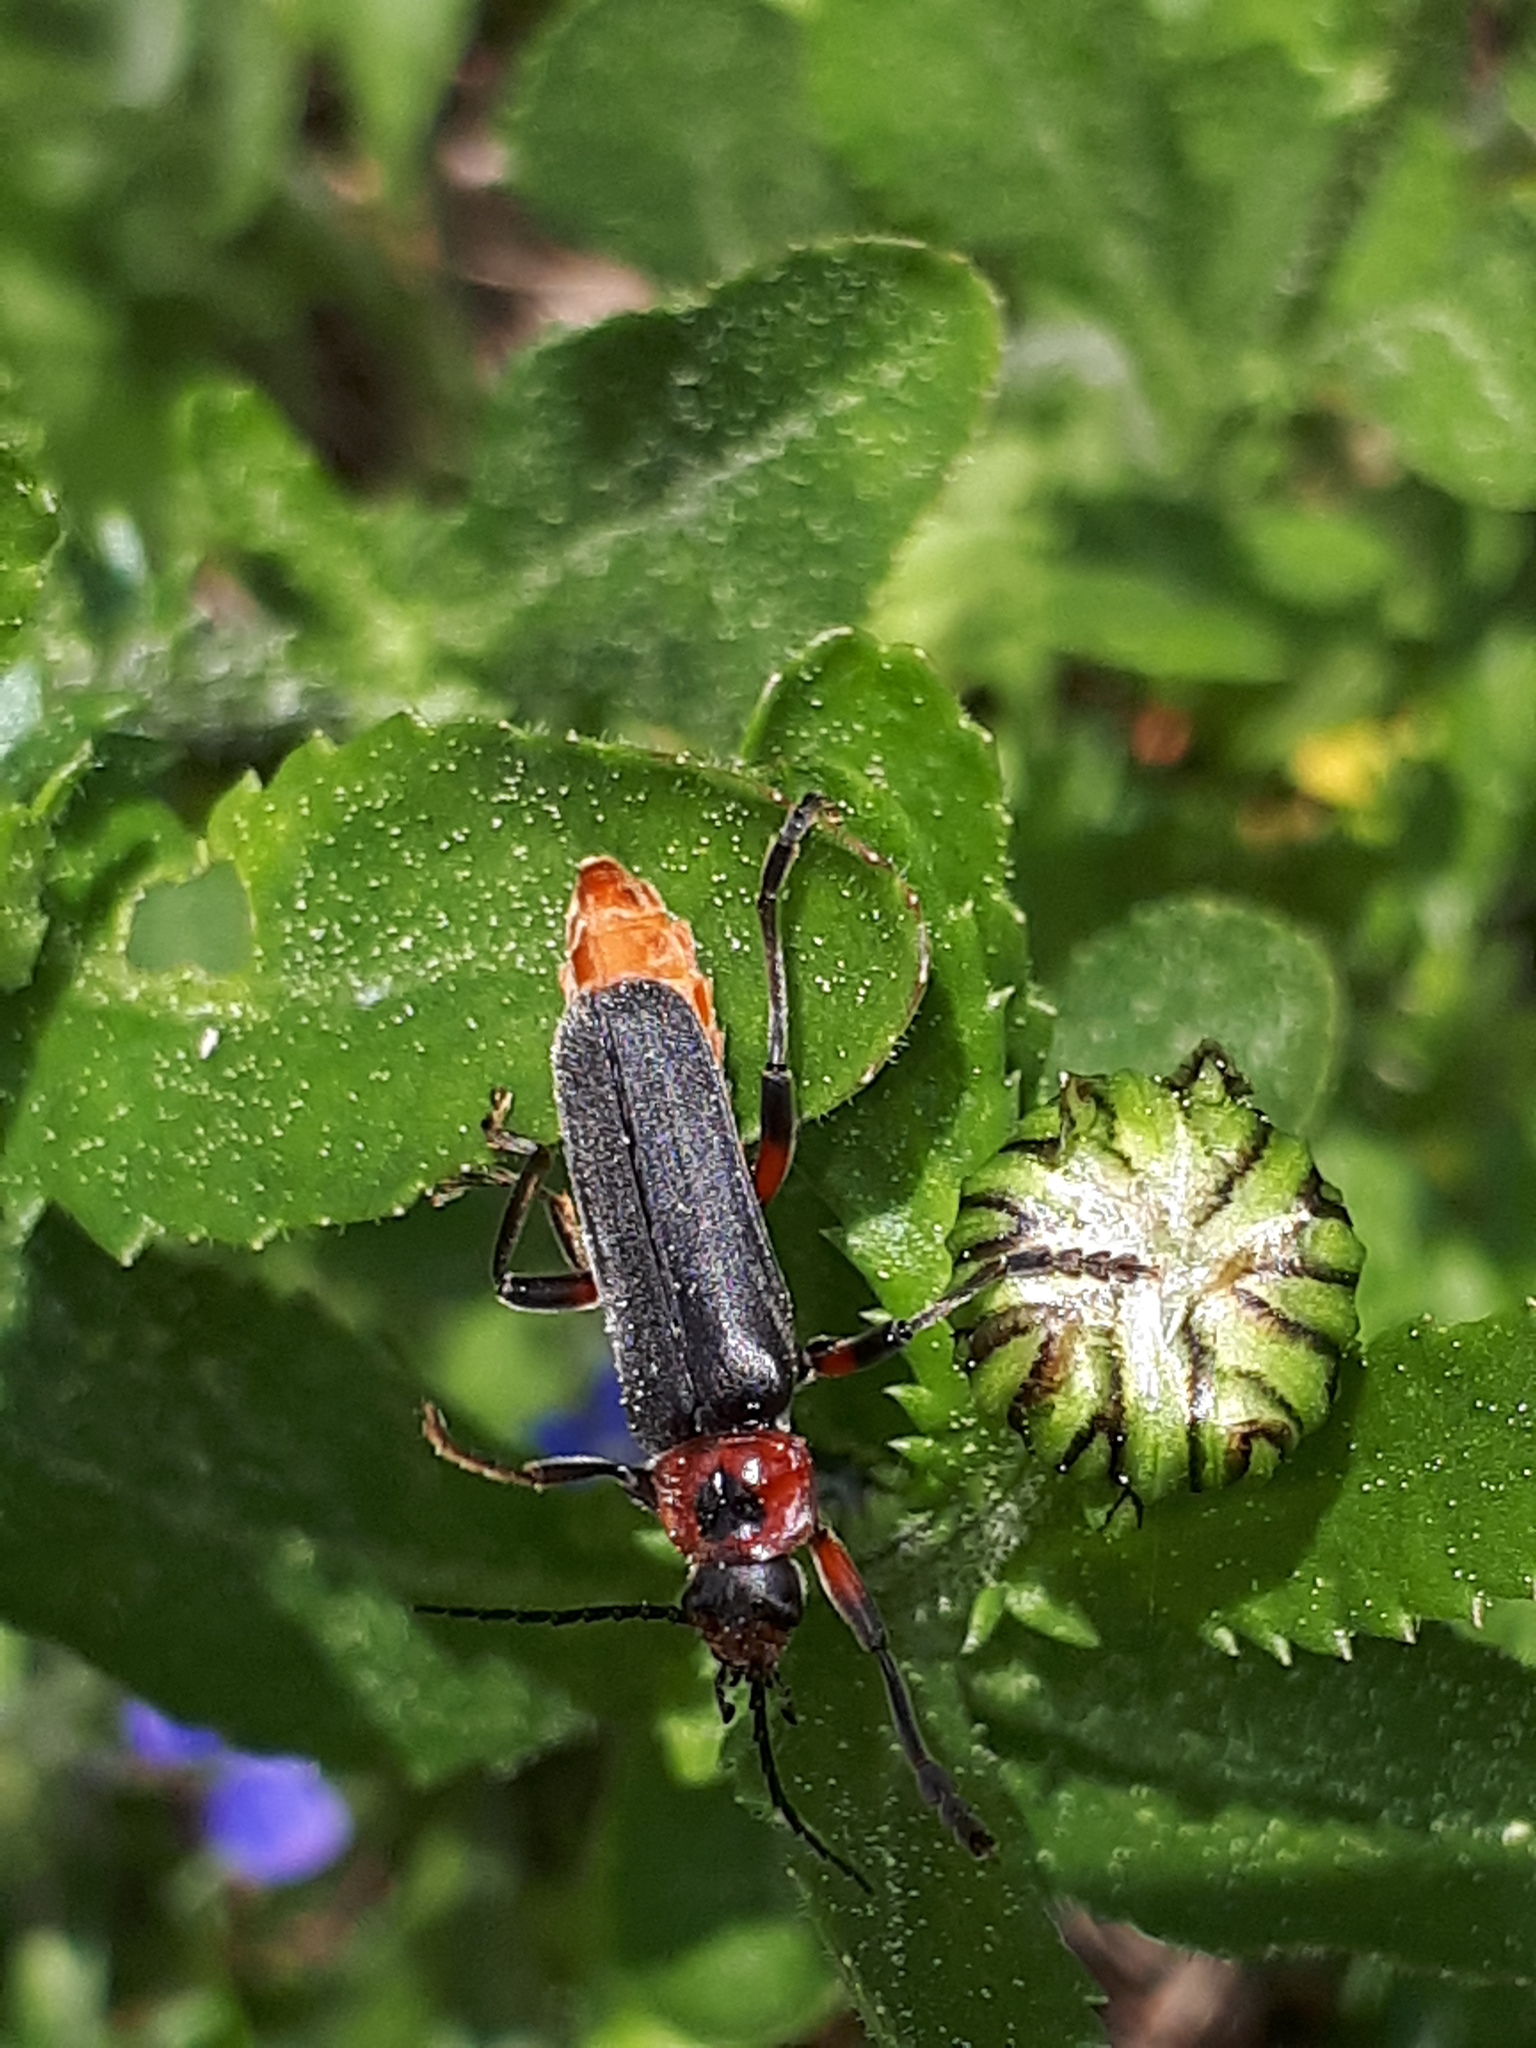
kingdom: Animalia
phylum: Arthropoda
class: Insecta
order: Coleoptera
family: Cantharidae
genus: Cantharis
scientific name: Cantharis rustica
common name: Soldier beetle
